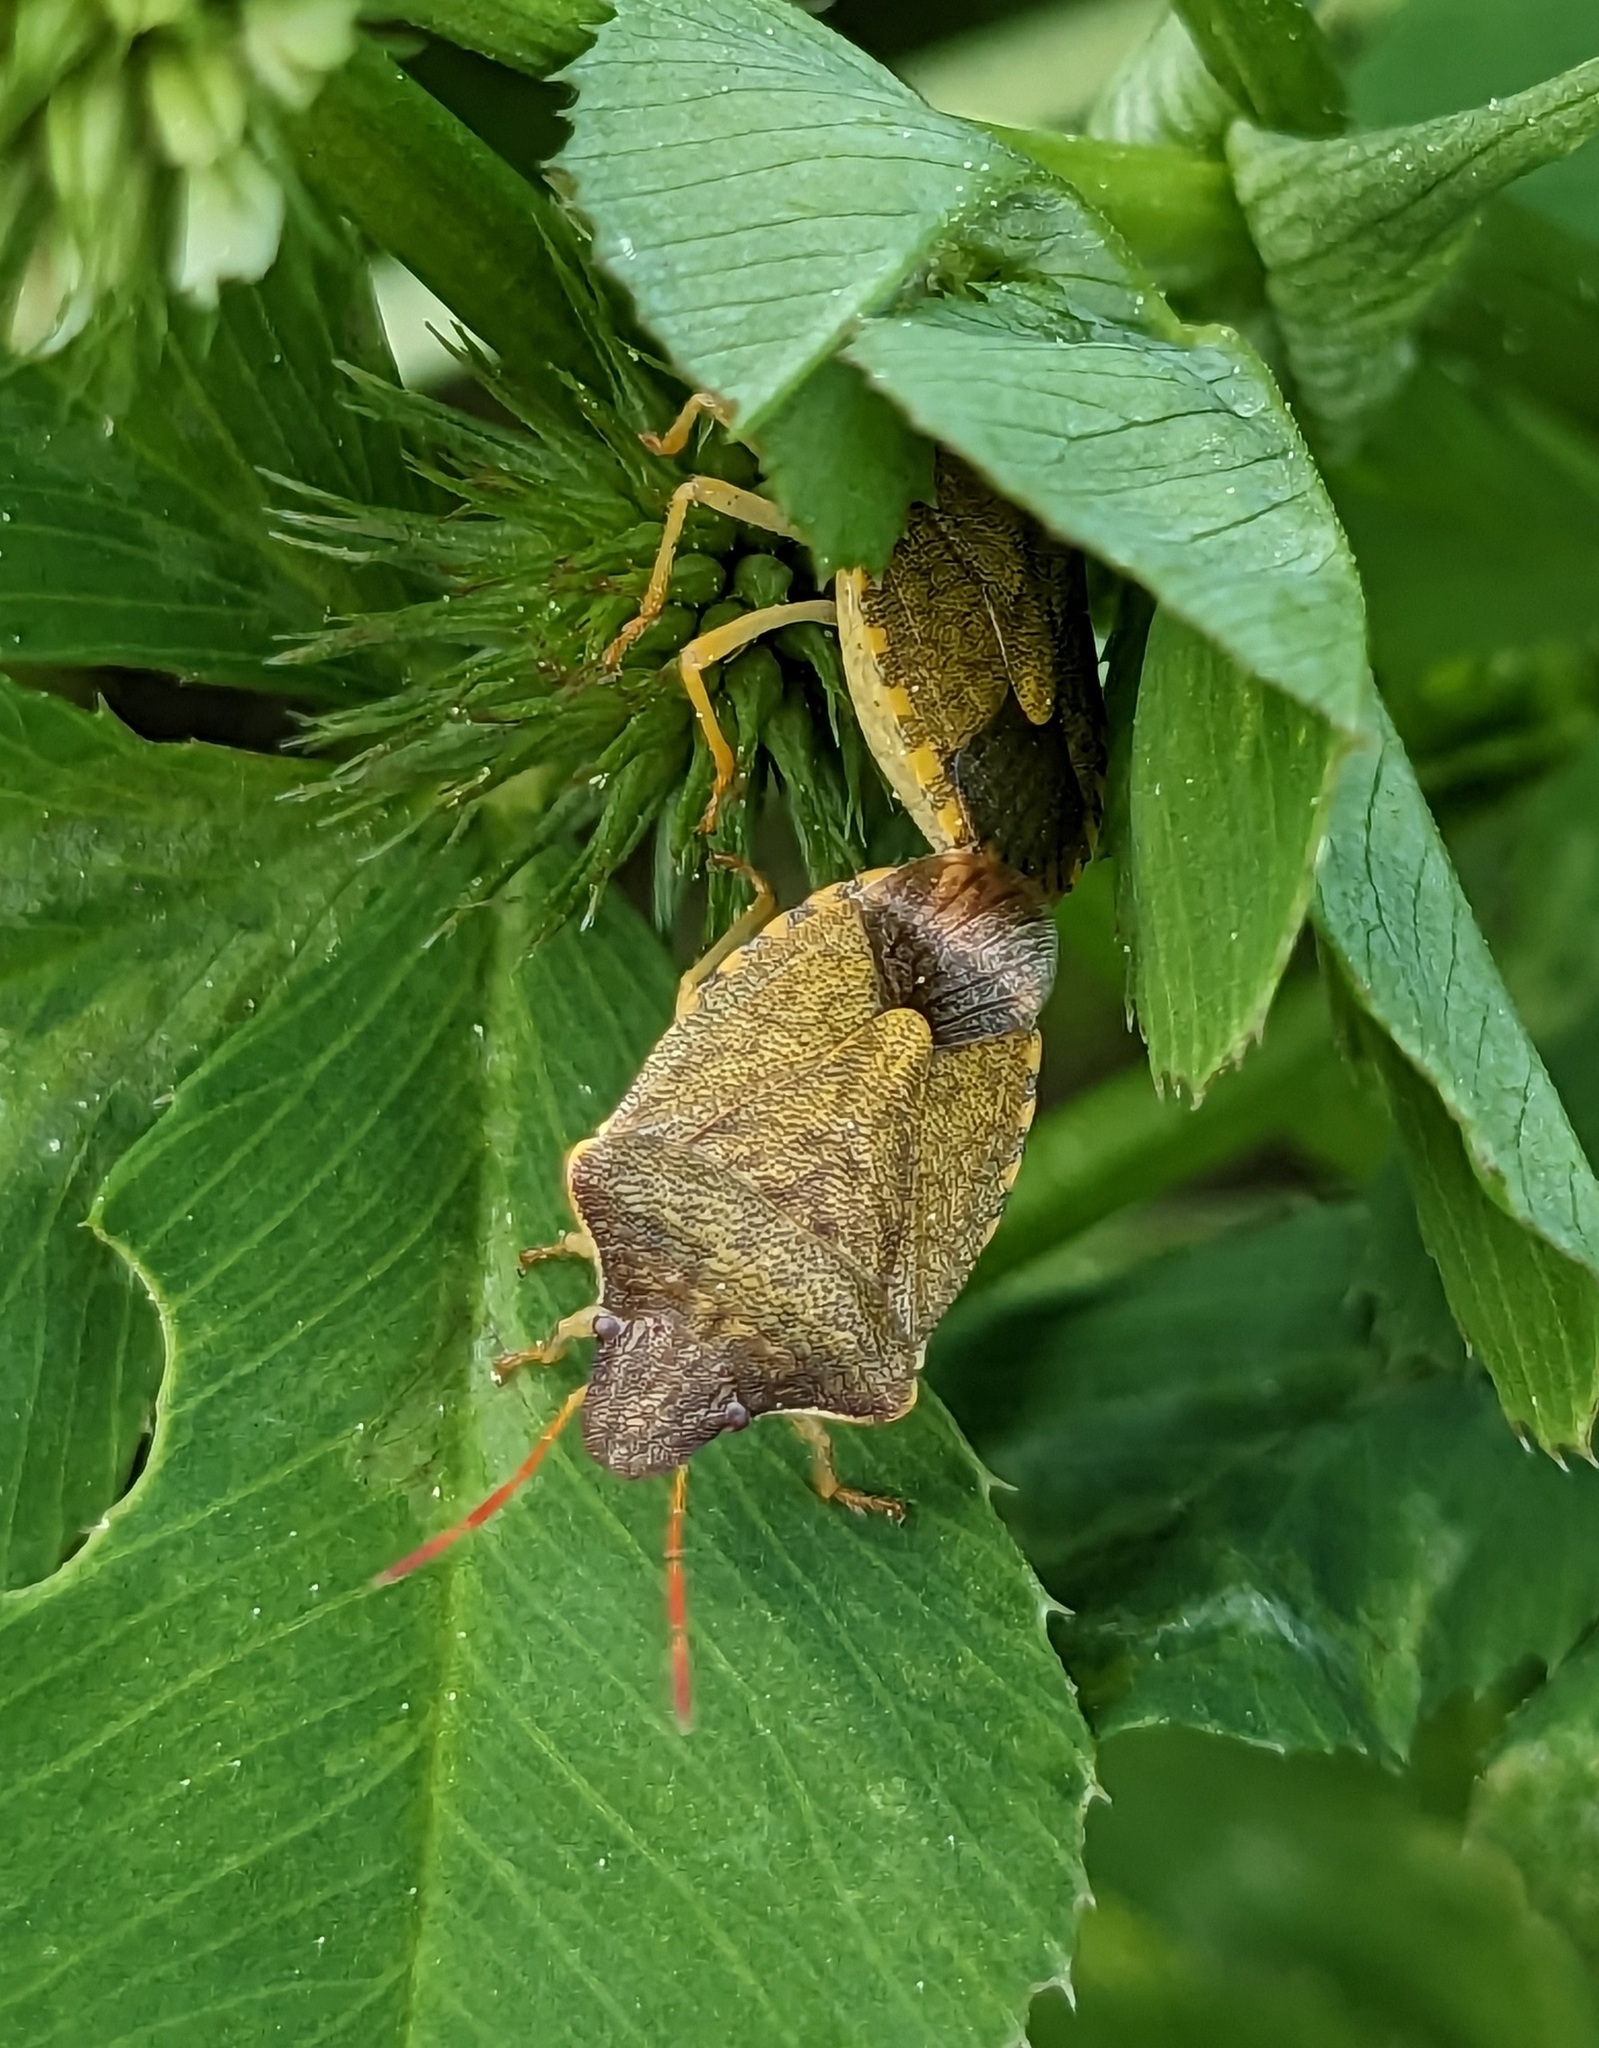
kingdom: Animalia
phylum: Arthropoda
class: Insecta
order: Hemiptera
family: Pentatomidae
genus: Holcostethus
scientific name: Holcostethus strictus
